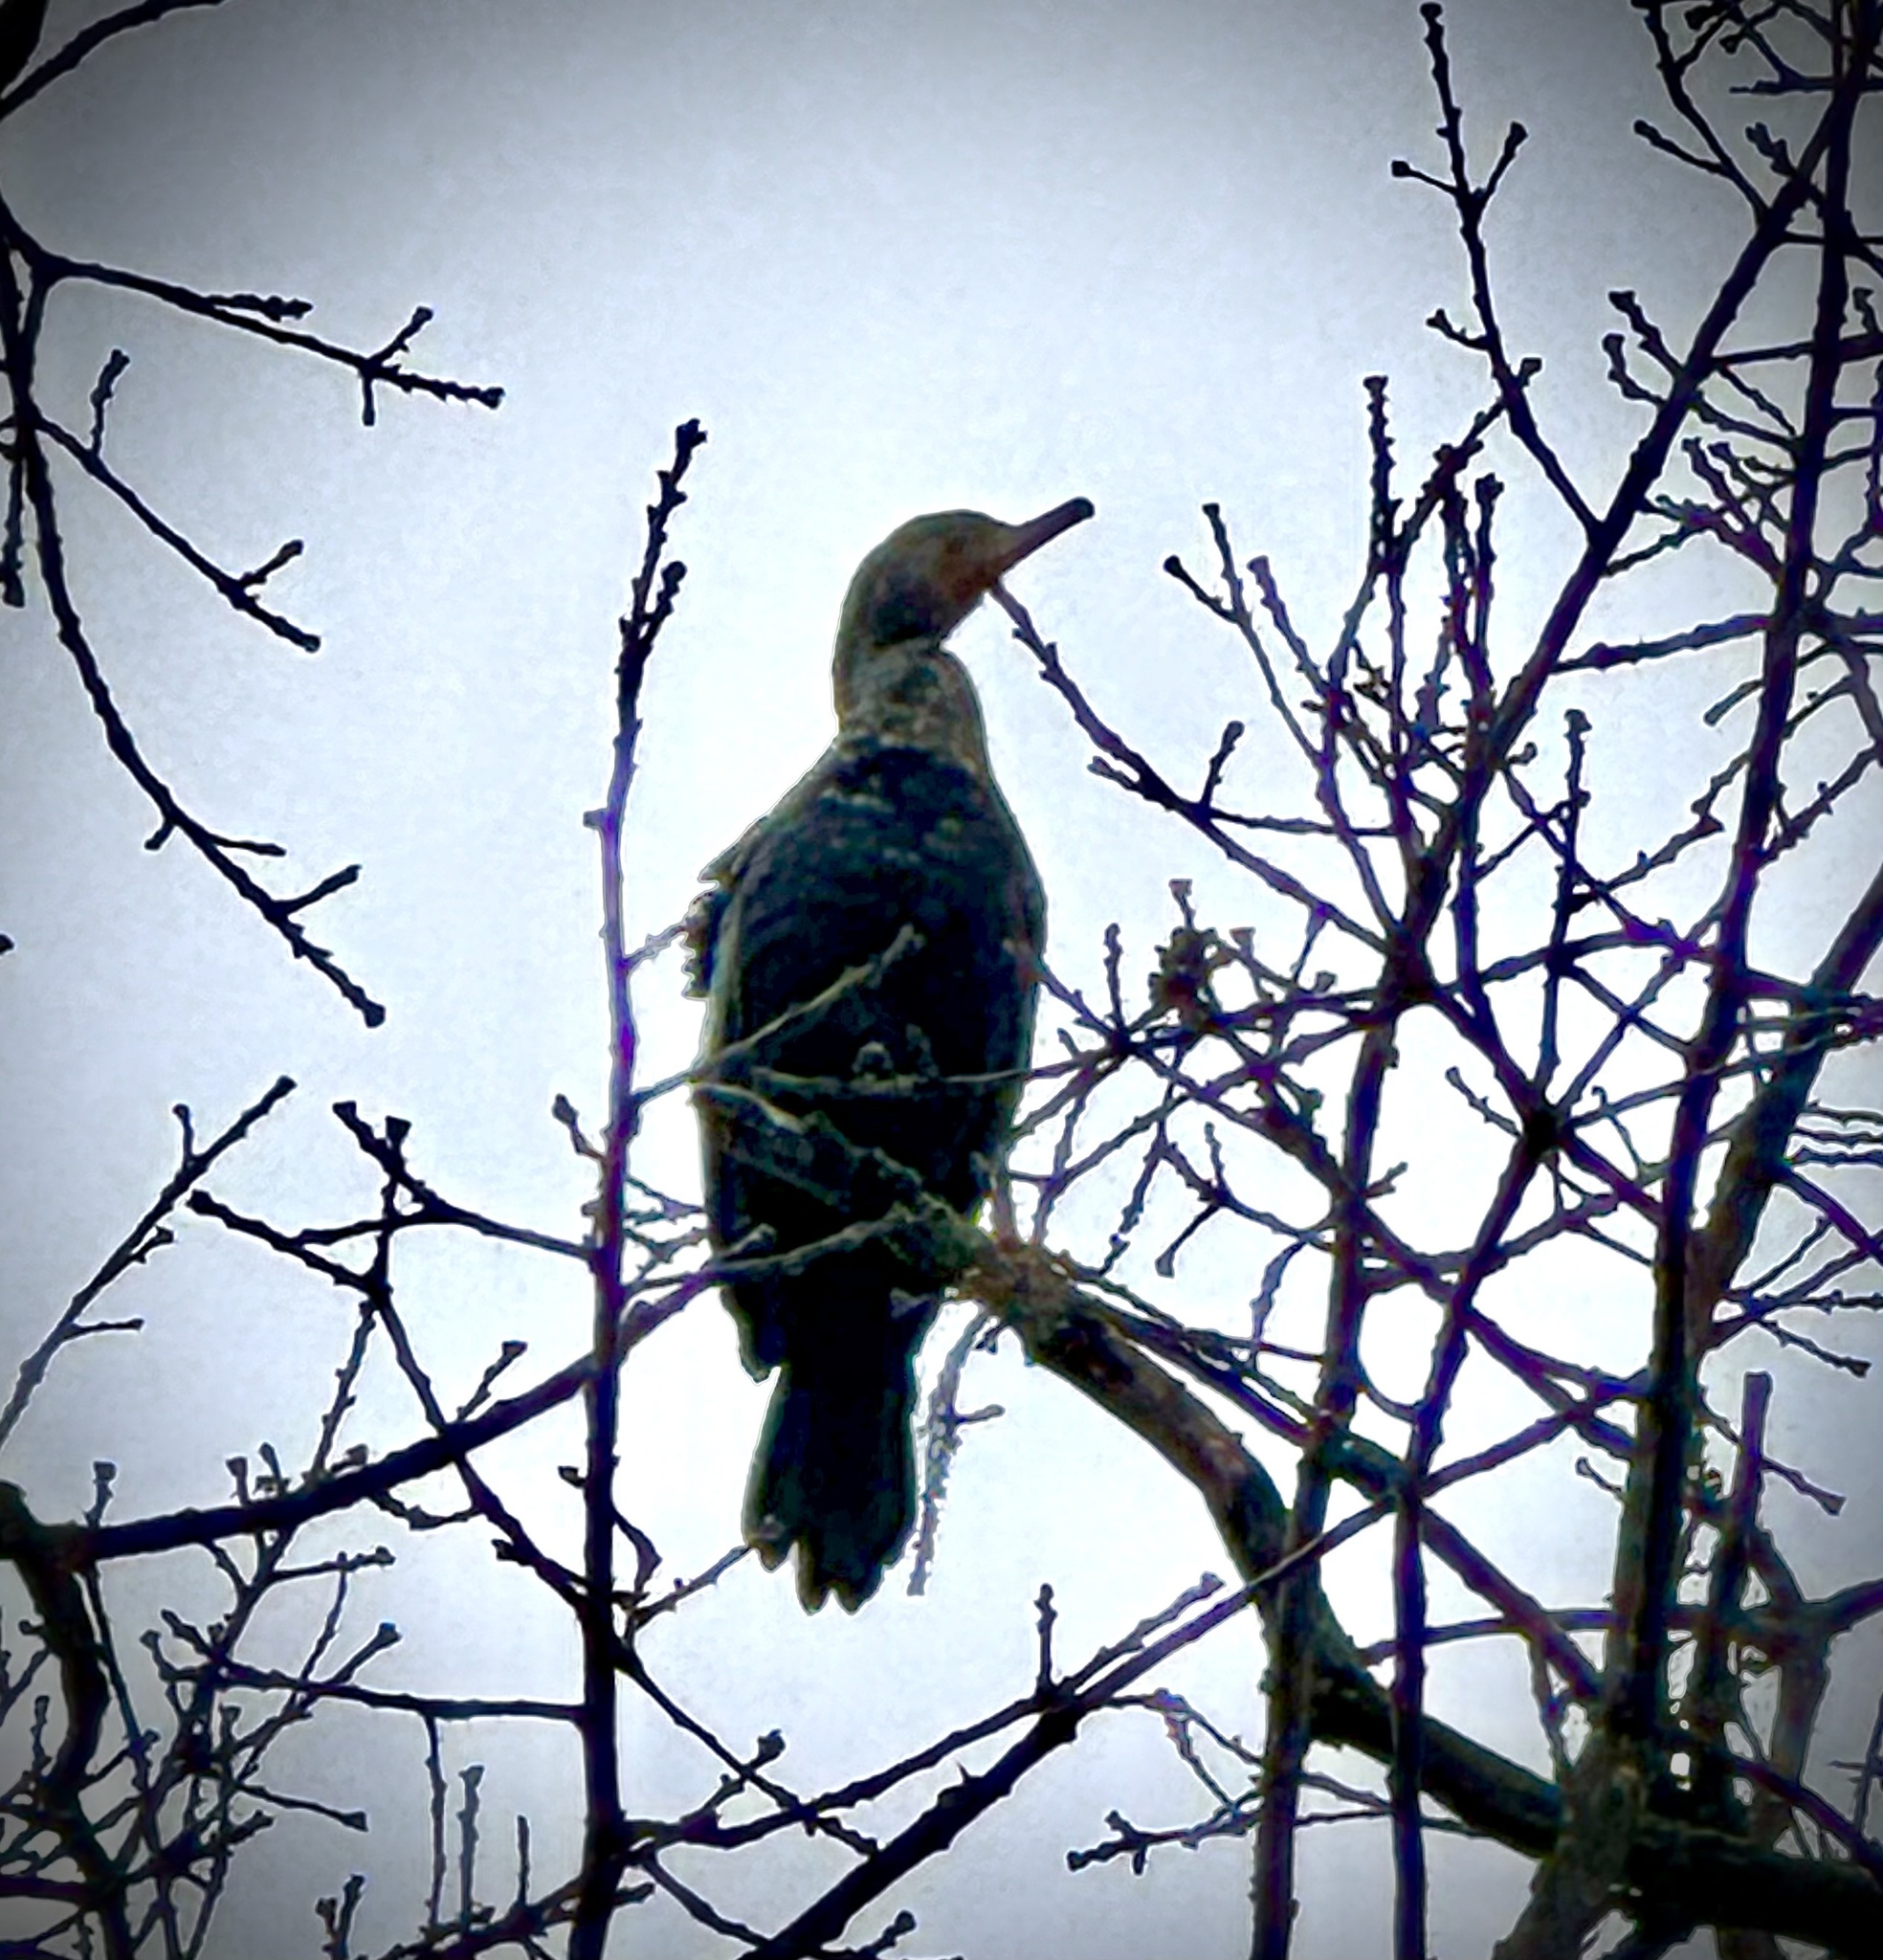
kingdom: Animalia
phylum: Chordata
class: Aves
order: Suliformes
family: Phalacrocoracidae
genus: Phalacrocorax
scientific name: Phalacrocorax auritus
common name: Double-crested cormorant
